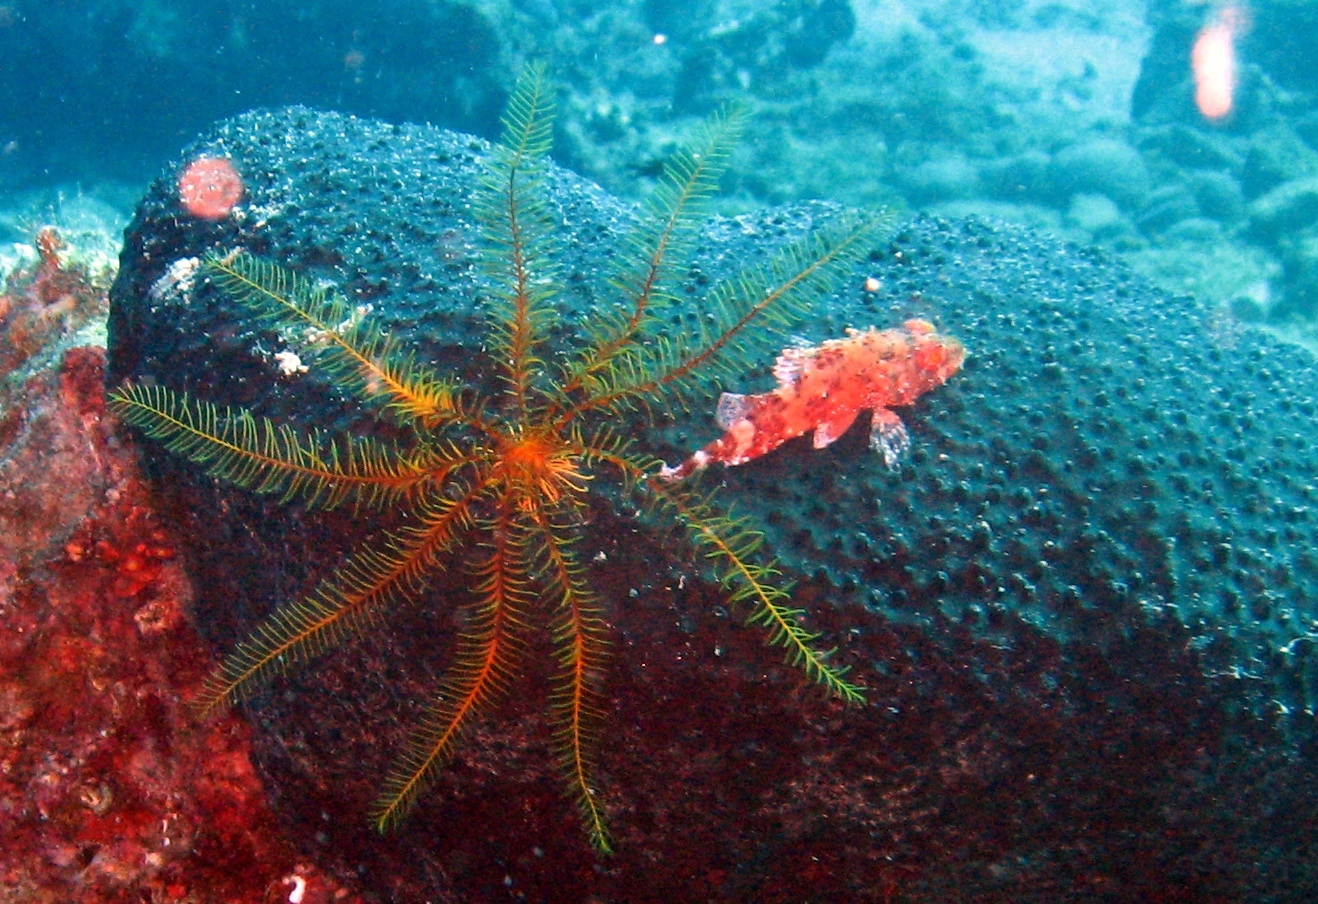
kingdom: Animalia
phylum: Echinodermata
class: Crinoidea
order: Comatulida
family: Antedonidae
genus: Antedon
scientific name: Antedon mediterranea
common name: Feather star
